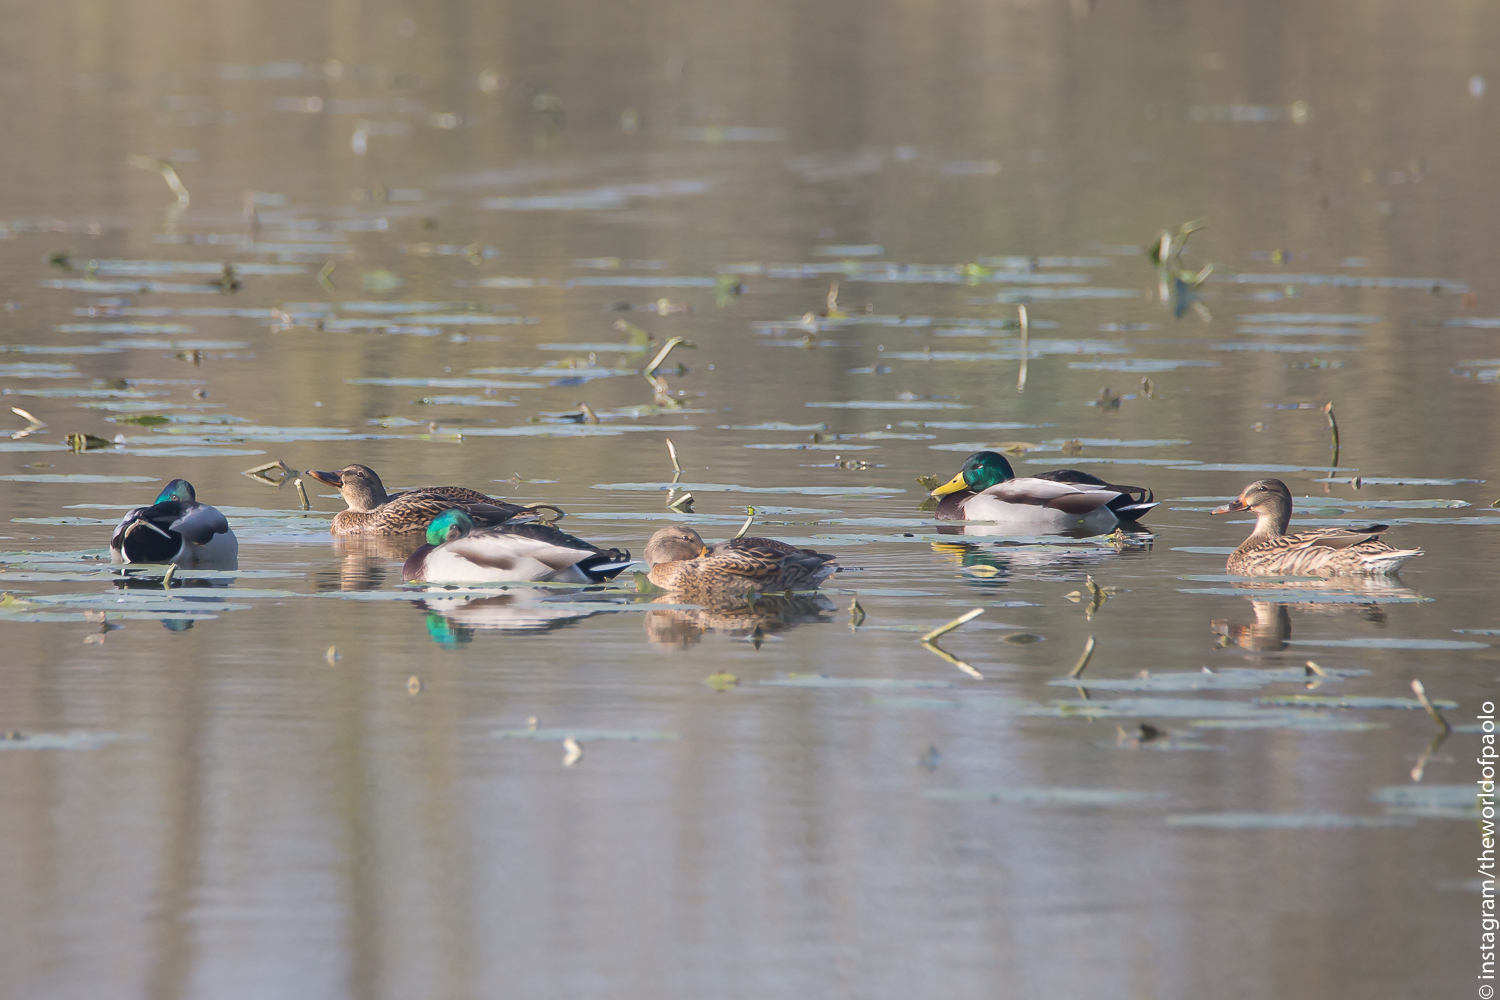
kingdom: Animalia
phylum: Chordata
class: Aves
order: Anseriformes
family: Anatidae
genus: Anas
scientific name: Anas platyrhynchos
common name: Mallard
